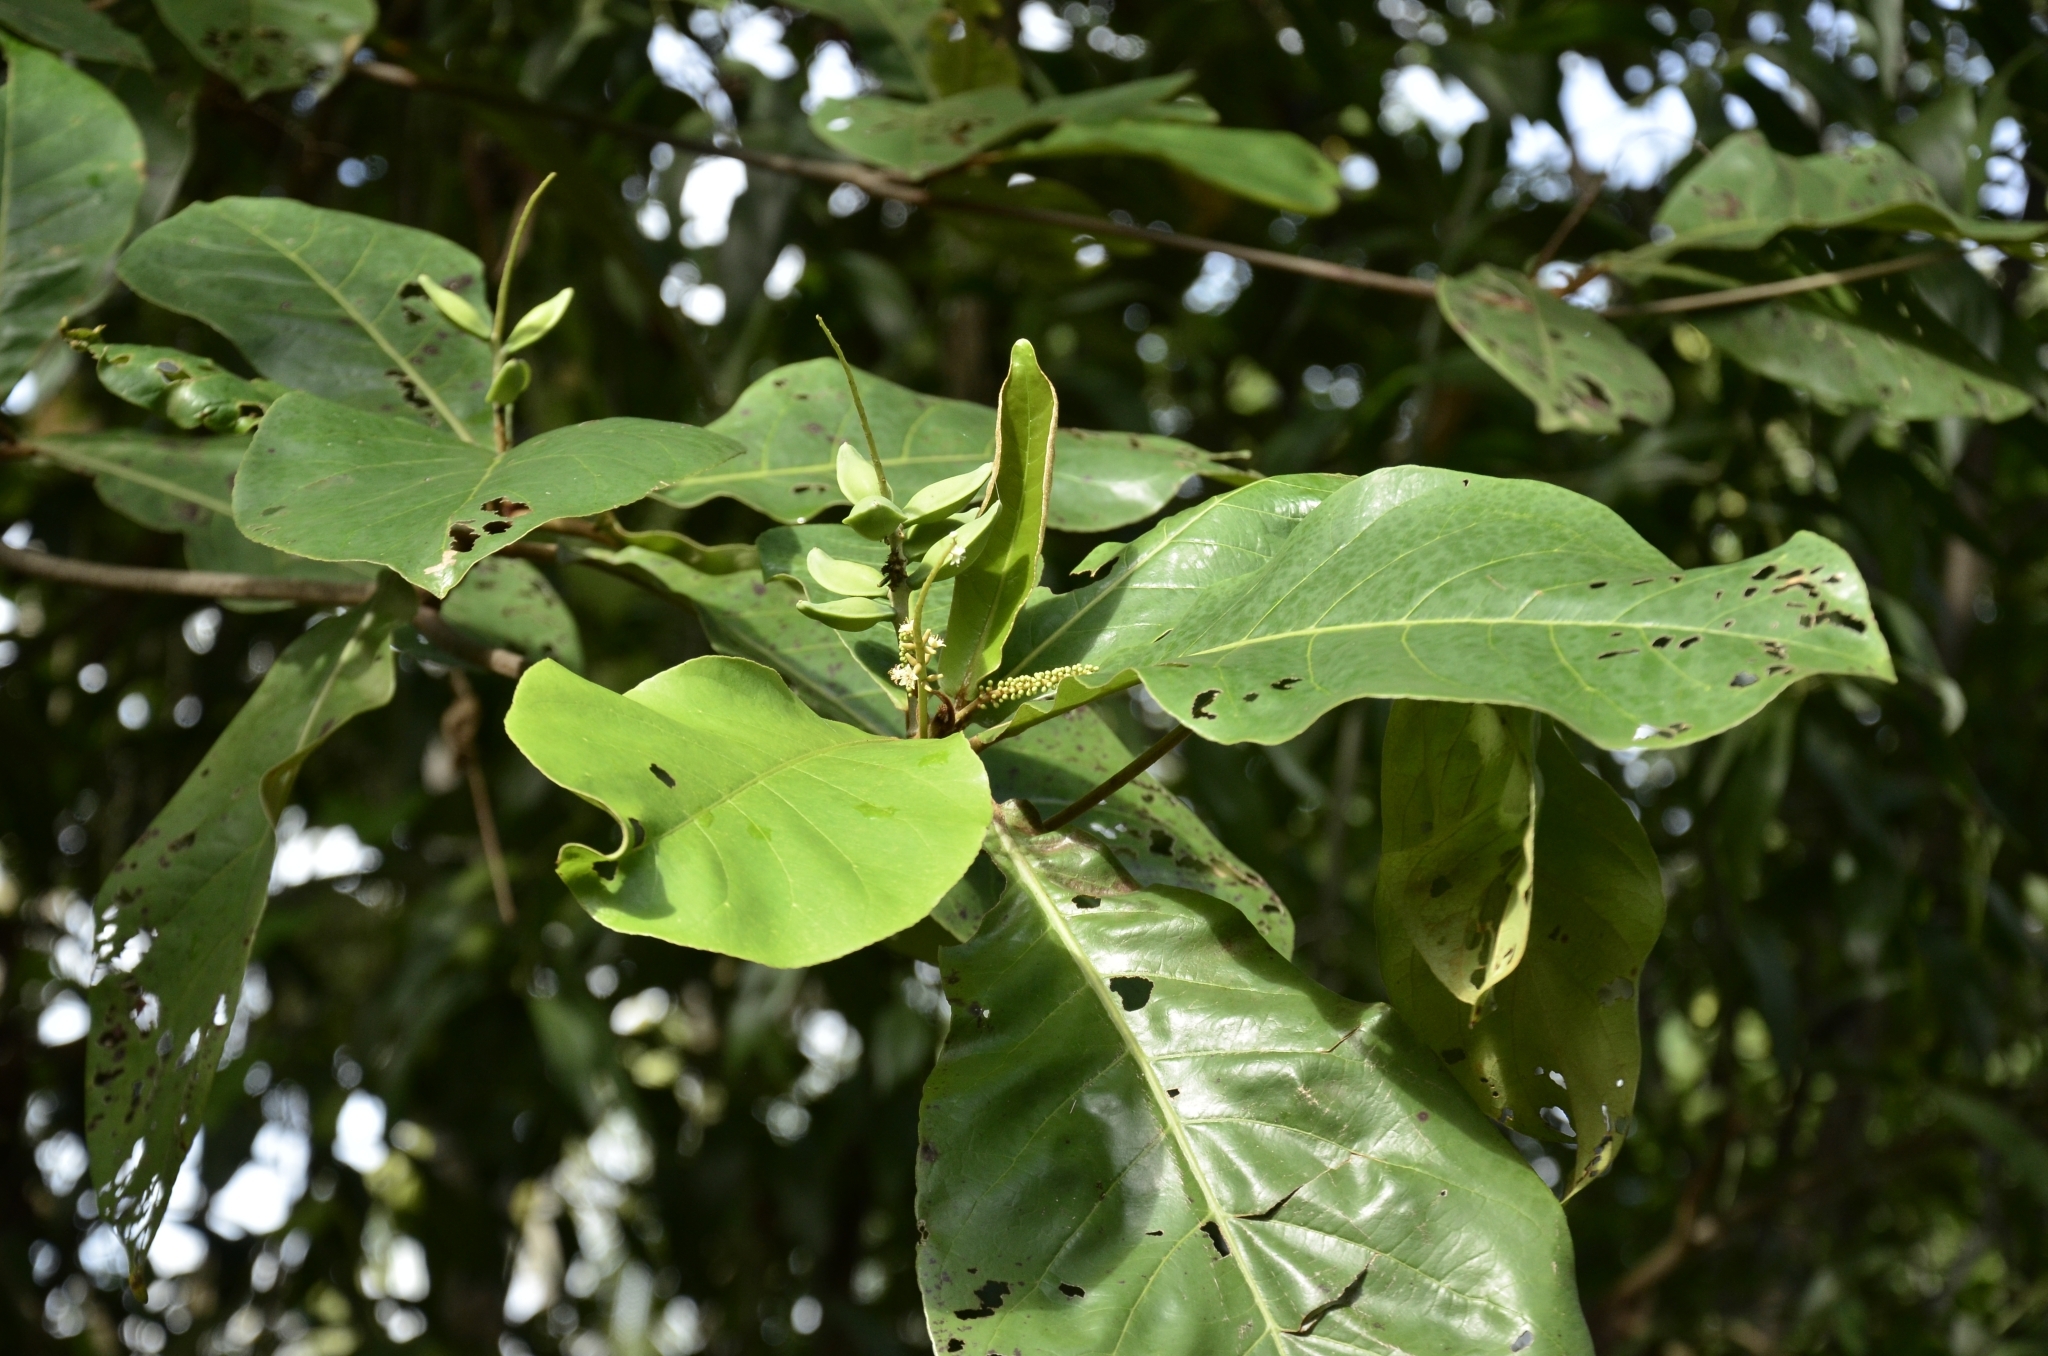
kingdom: Plantae
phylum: Tracheophyta
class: Magnoliopsida
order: Myrtales
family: Combretaceae
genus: Terminalia
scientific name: Terminalia catappa
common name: Tropical almond
